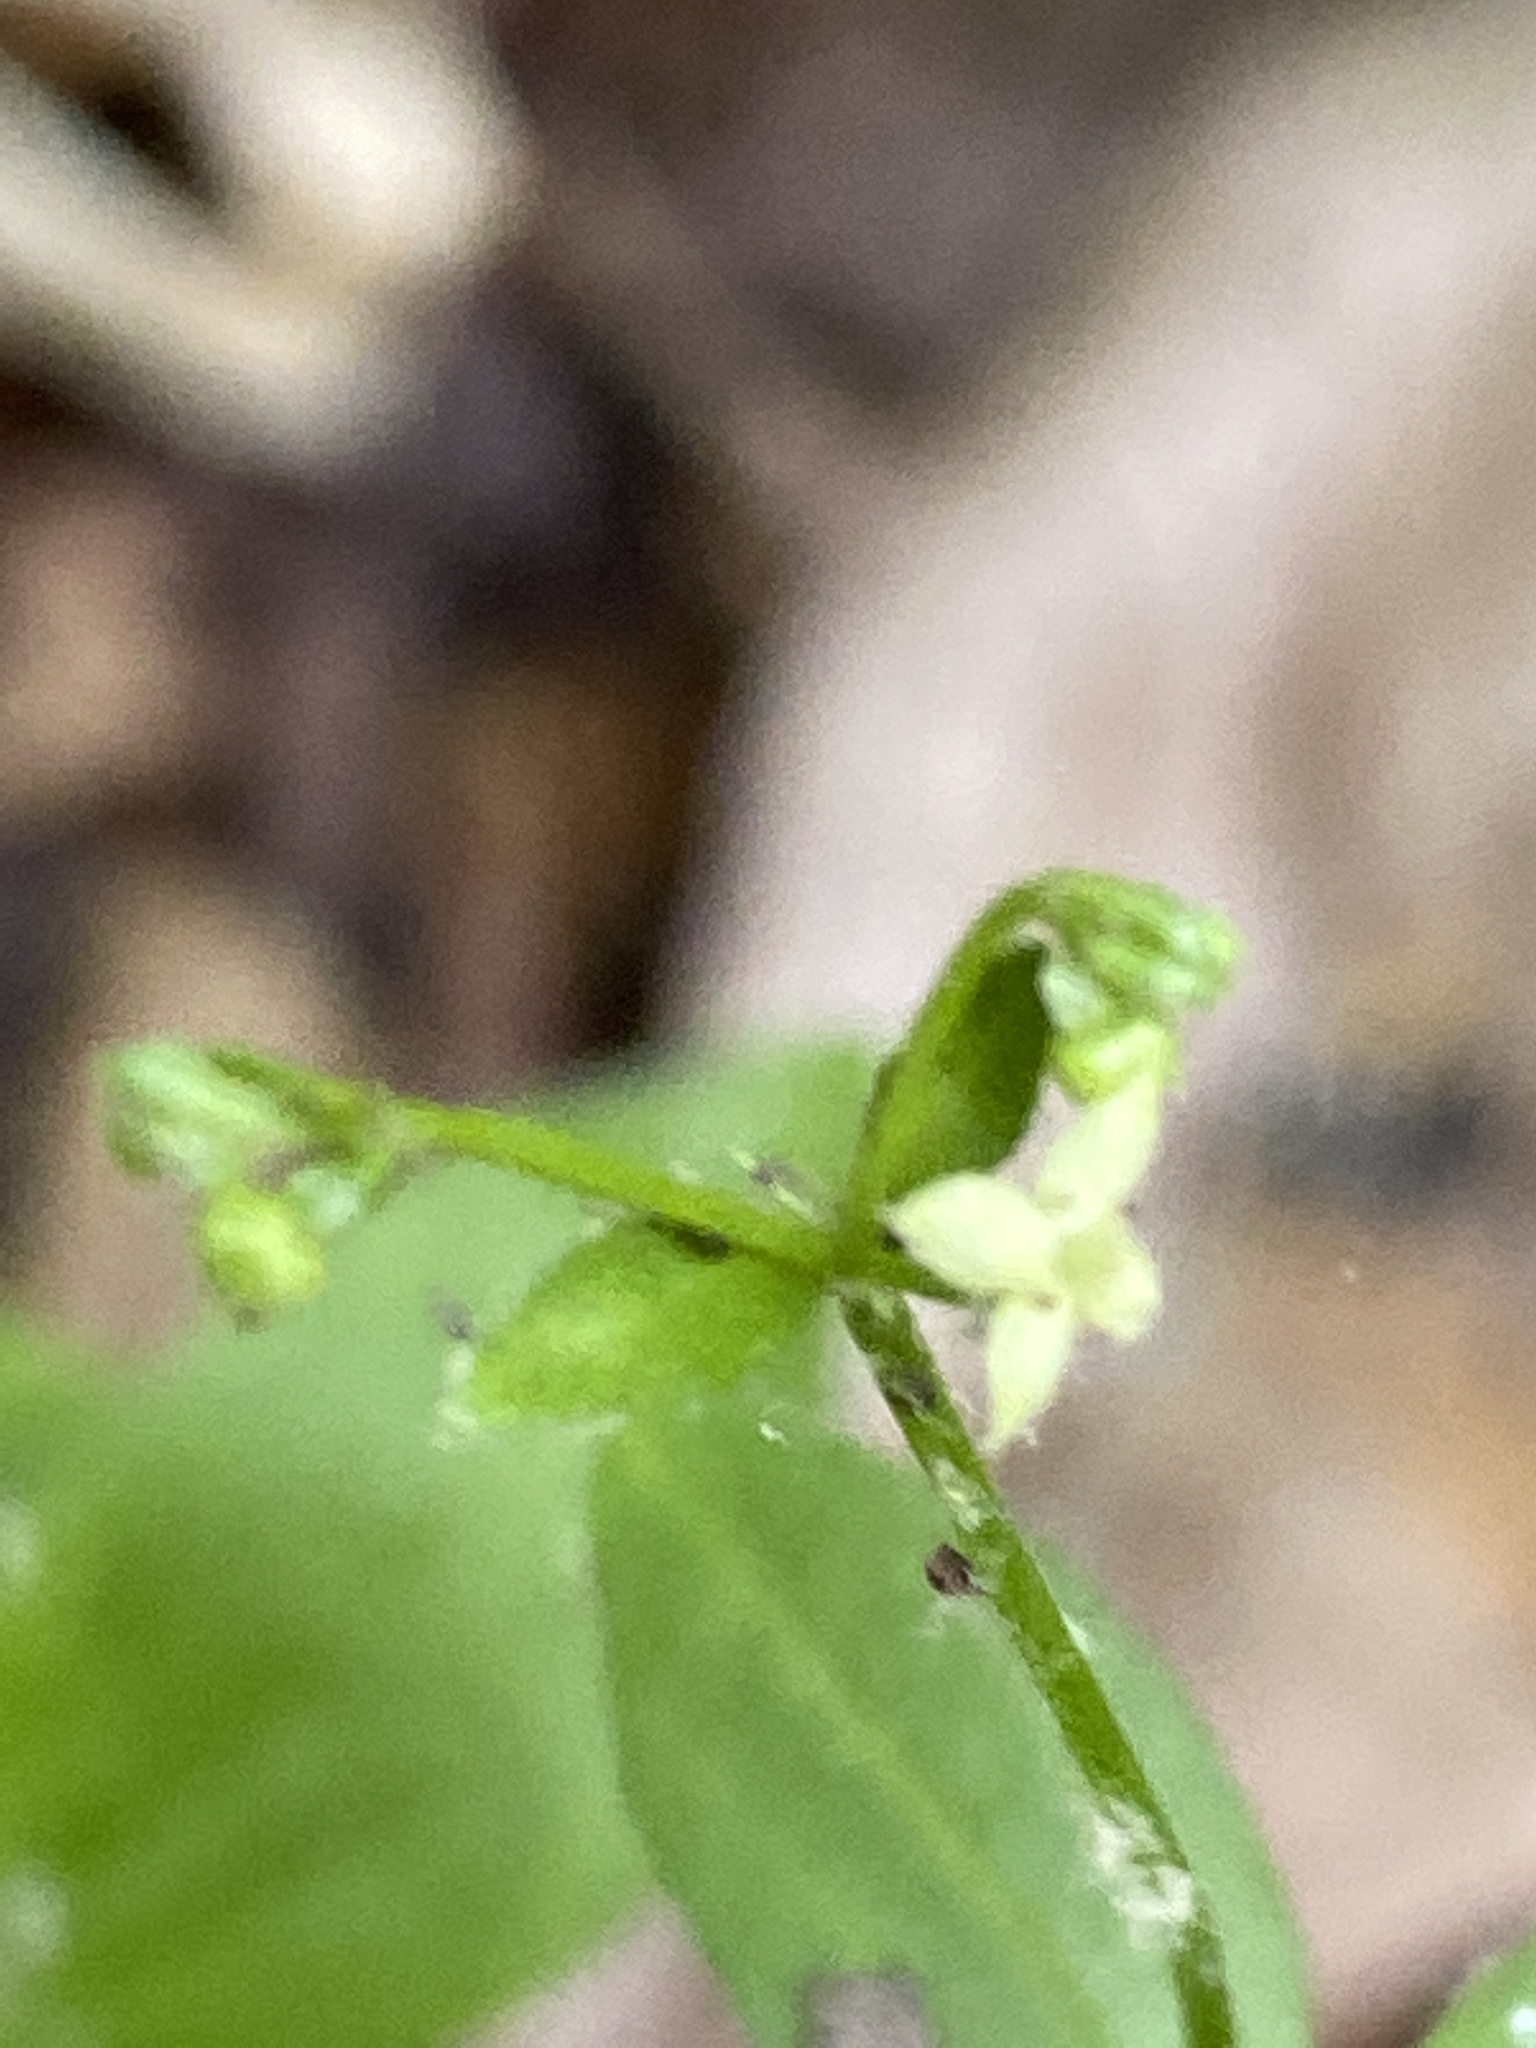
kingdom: Plantae
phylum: Tracheophyta
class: Magnoliopsida
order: Gentianales
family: Rubiaceae
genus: Galium
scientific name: Galium circaezans
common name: Forest bedstraw
